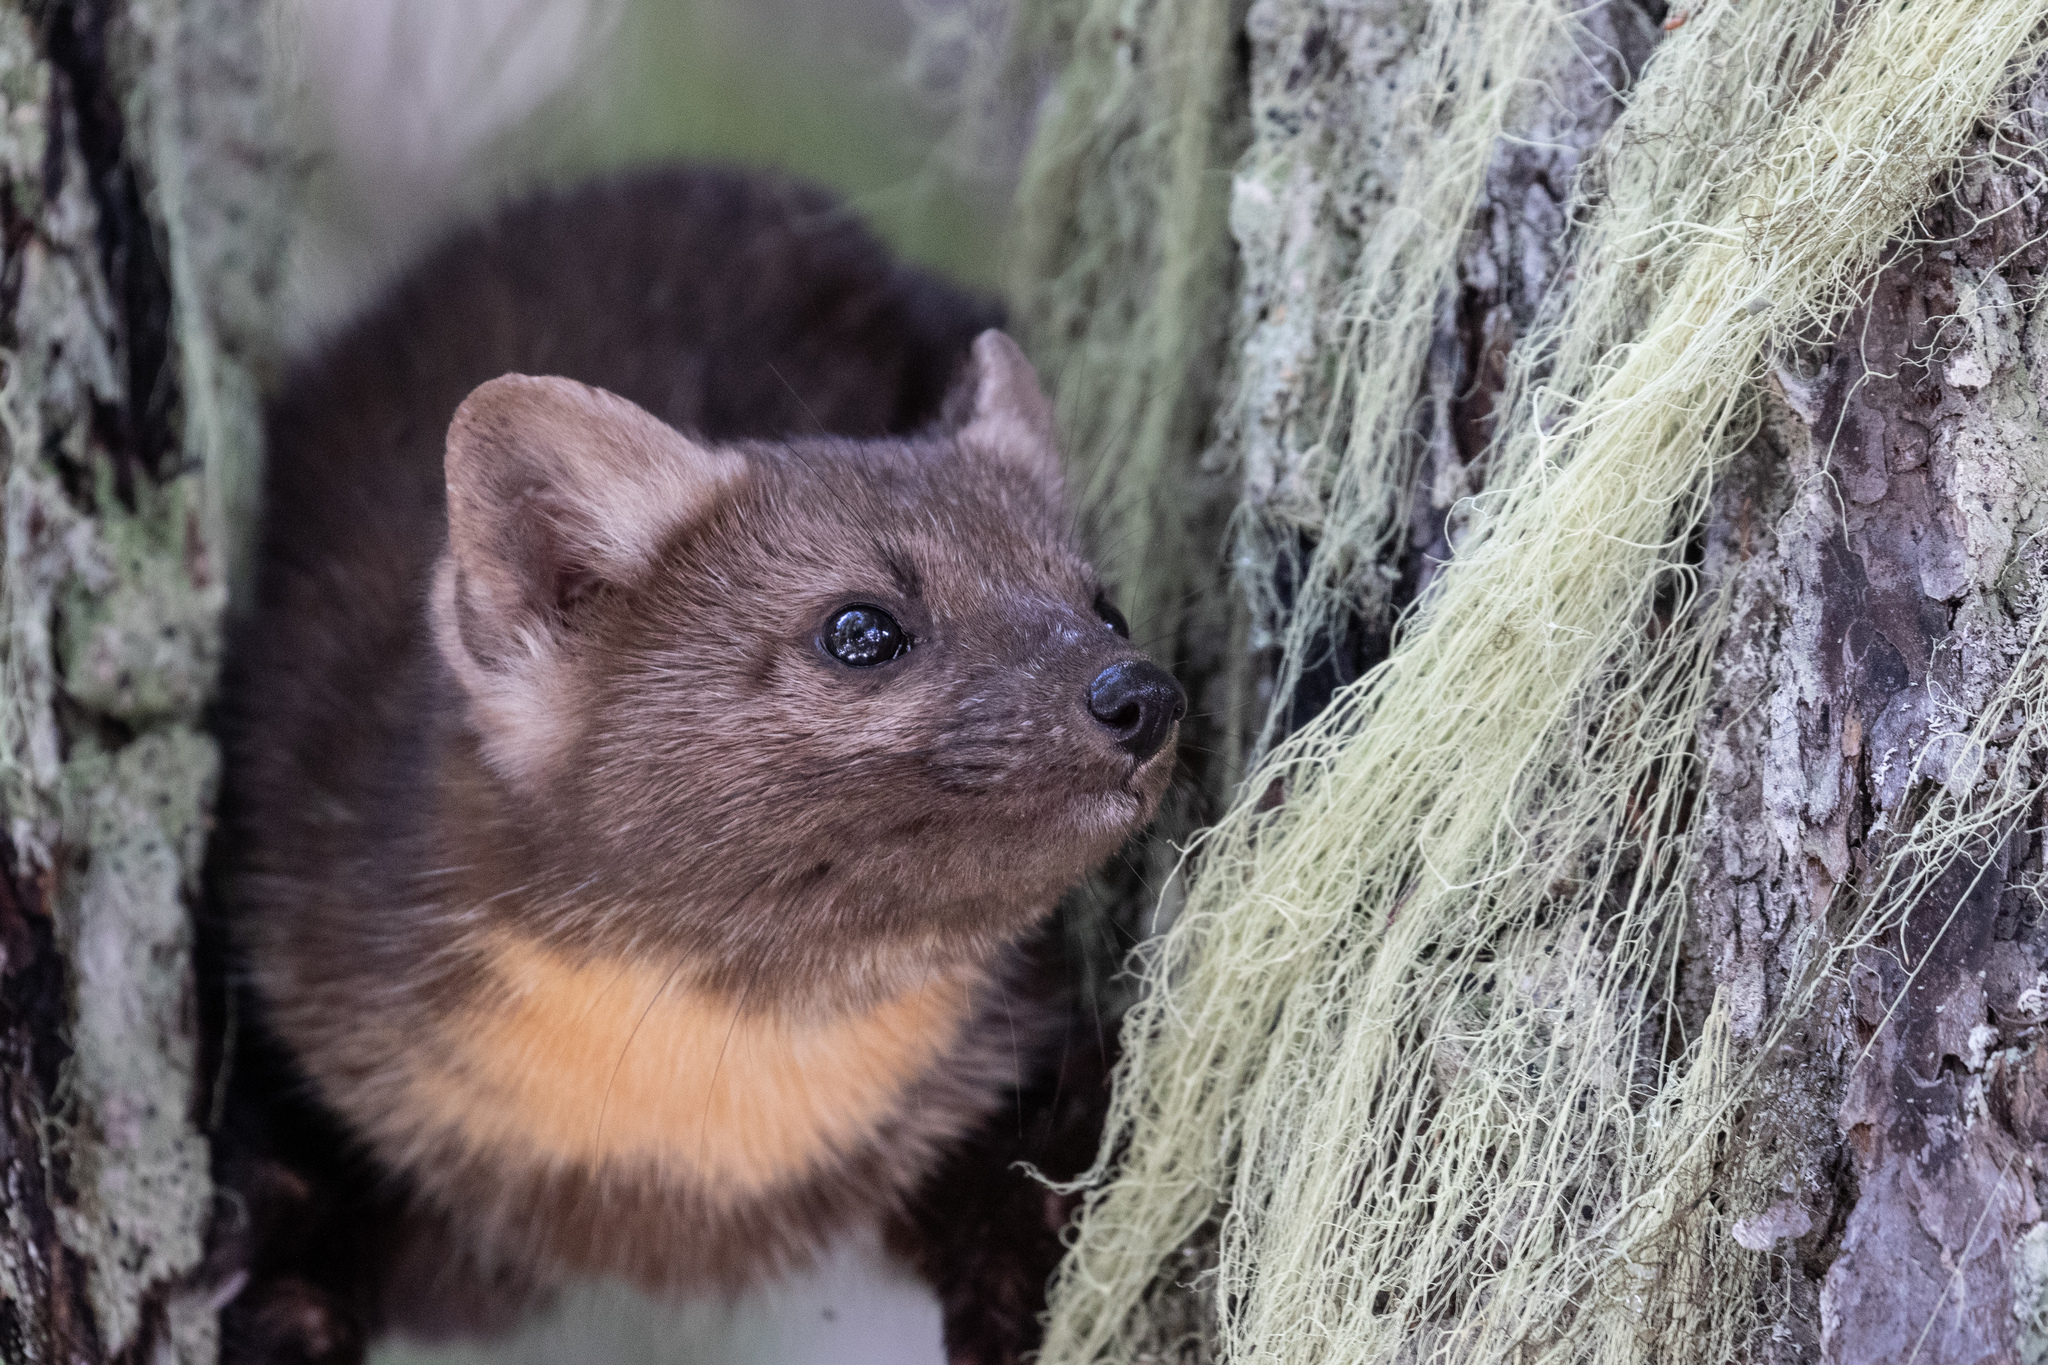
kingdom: Animalia
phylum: Chordata
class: Mammalia
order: Carnivora
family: Mustelidae
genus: Martes
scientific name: Martes caurina
